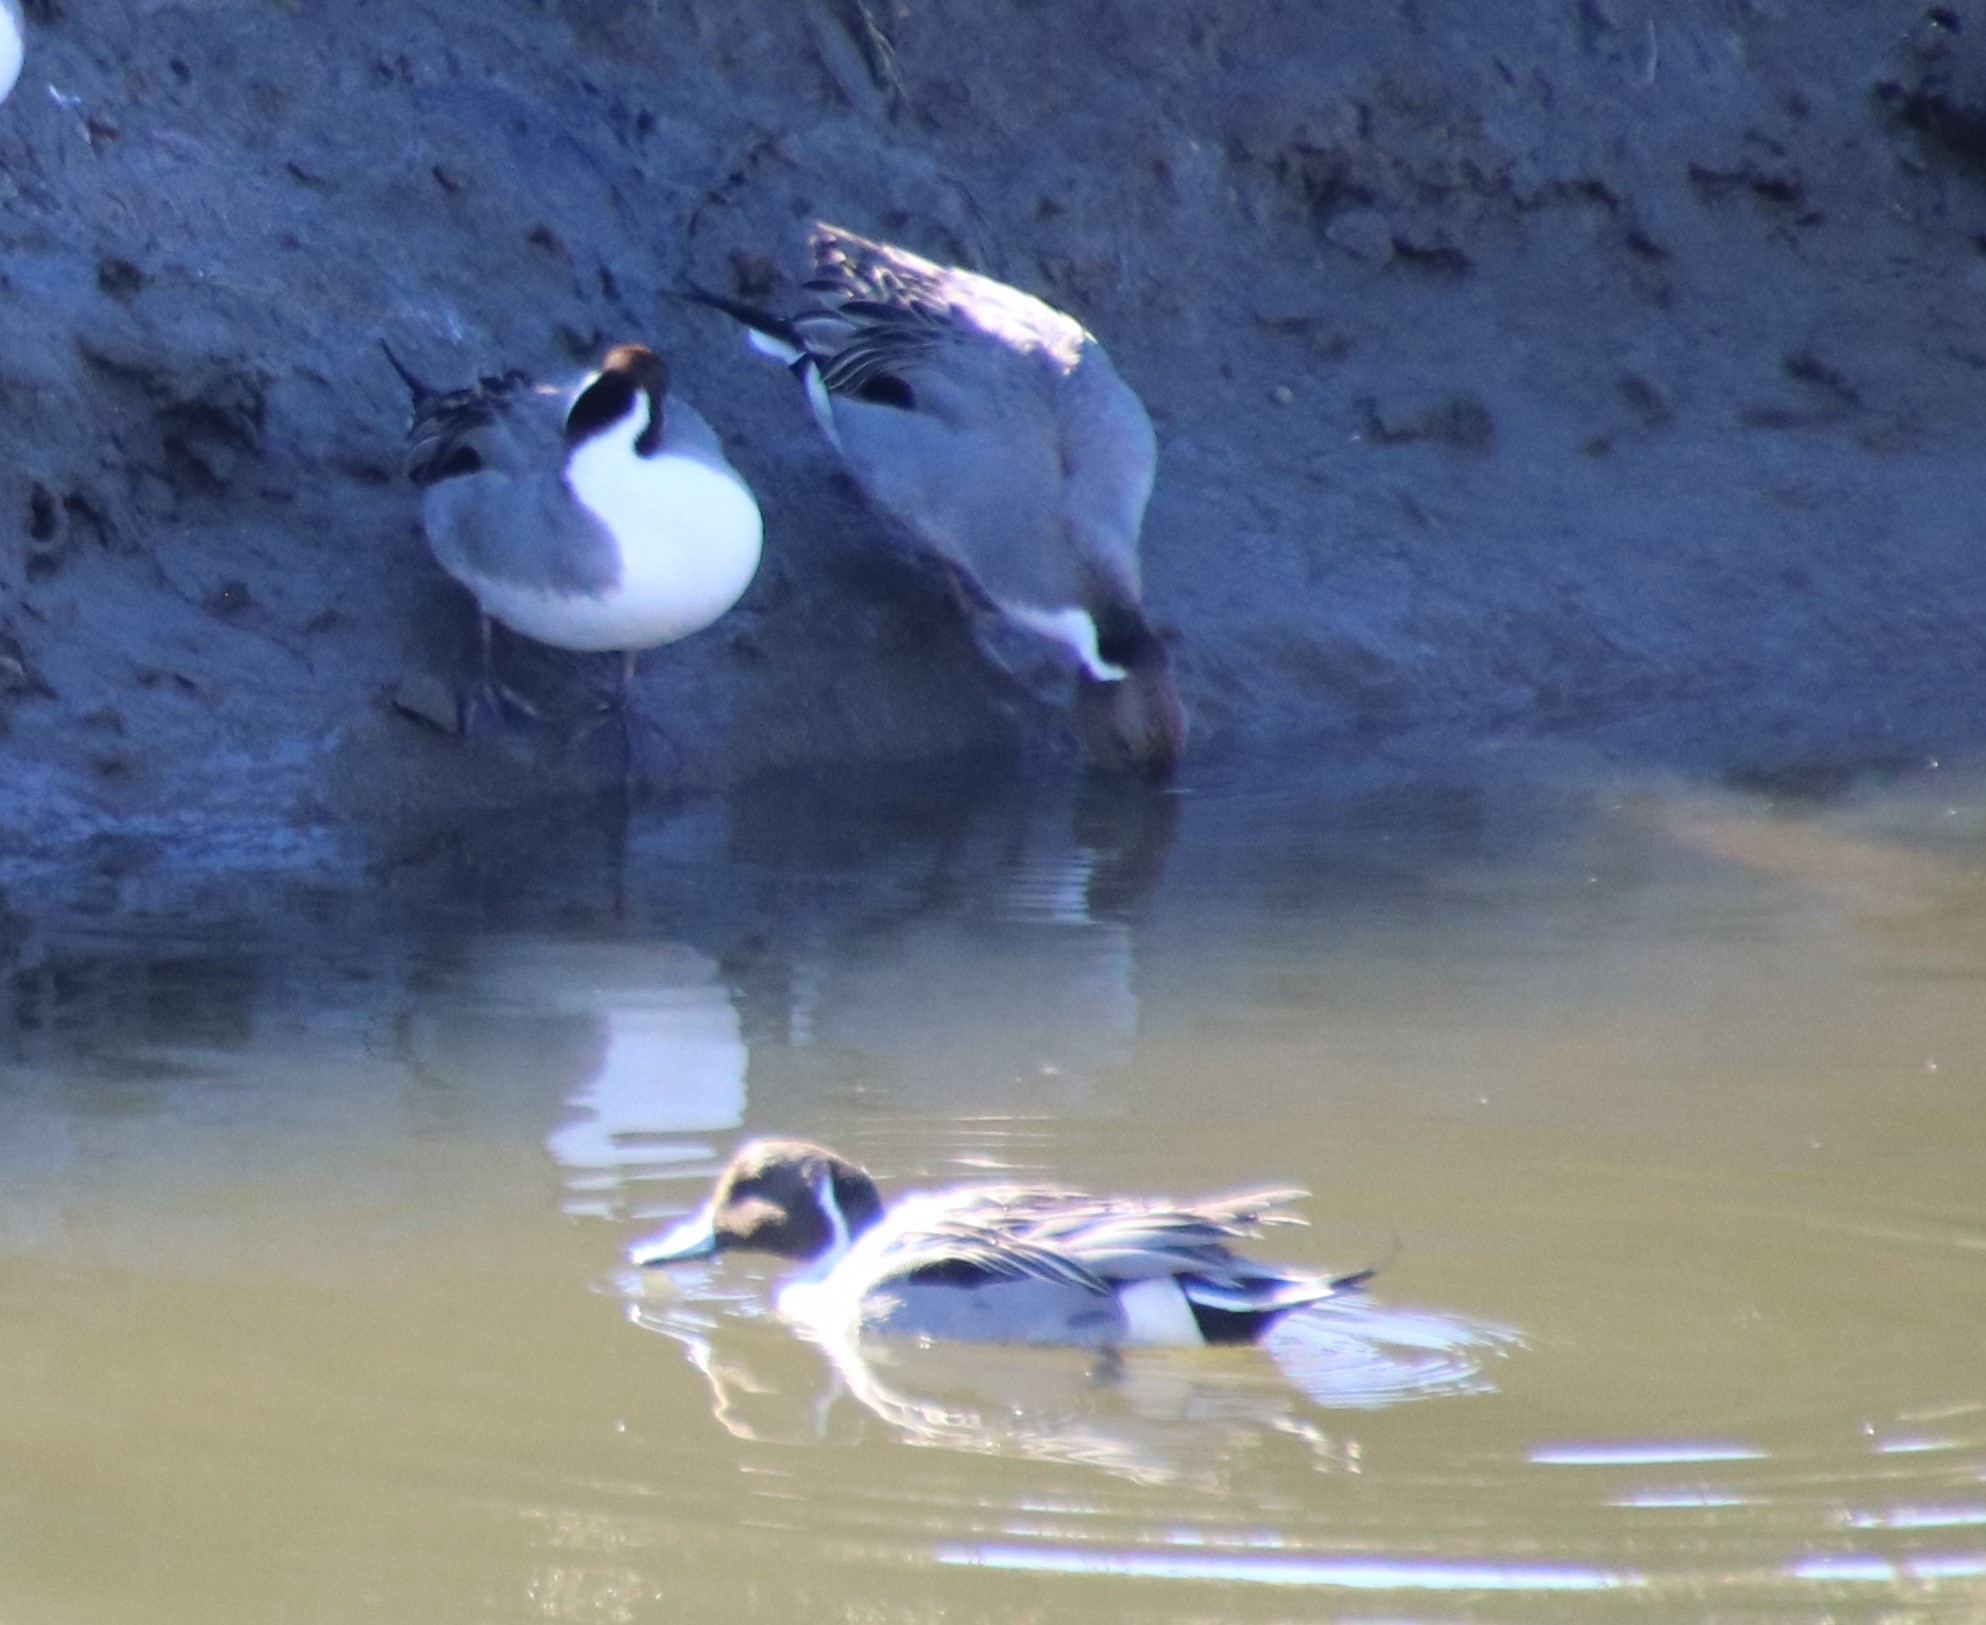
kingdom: Animalia
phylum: Chordata
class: Aves
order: Anseriformes
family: Anatidae
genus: Anas
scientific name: Anas acuta
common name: Northern pintail
